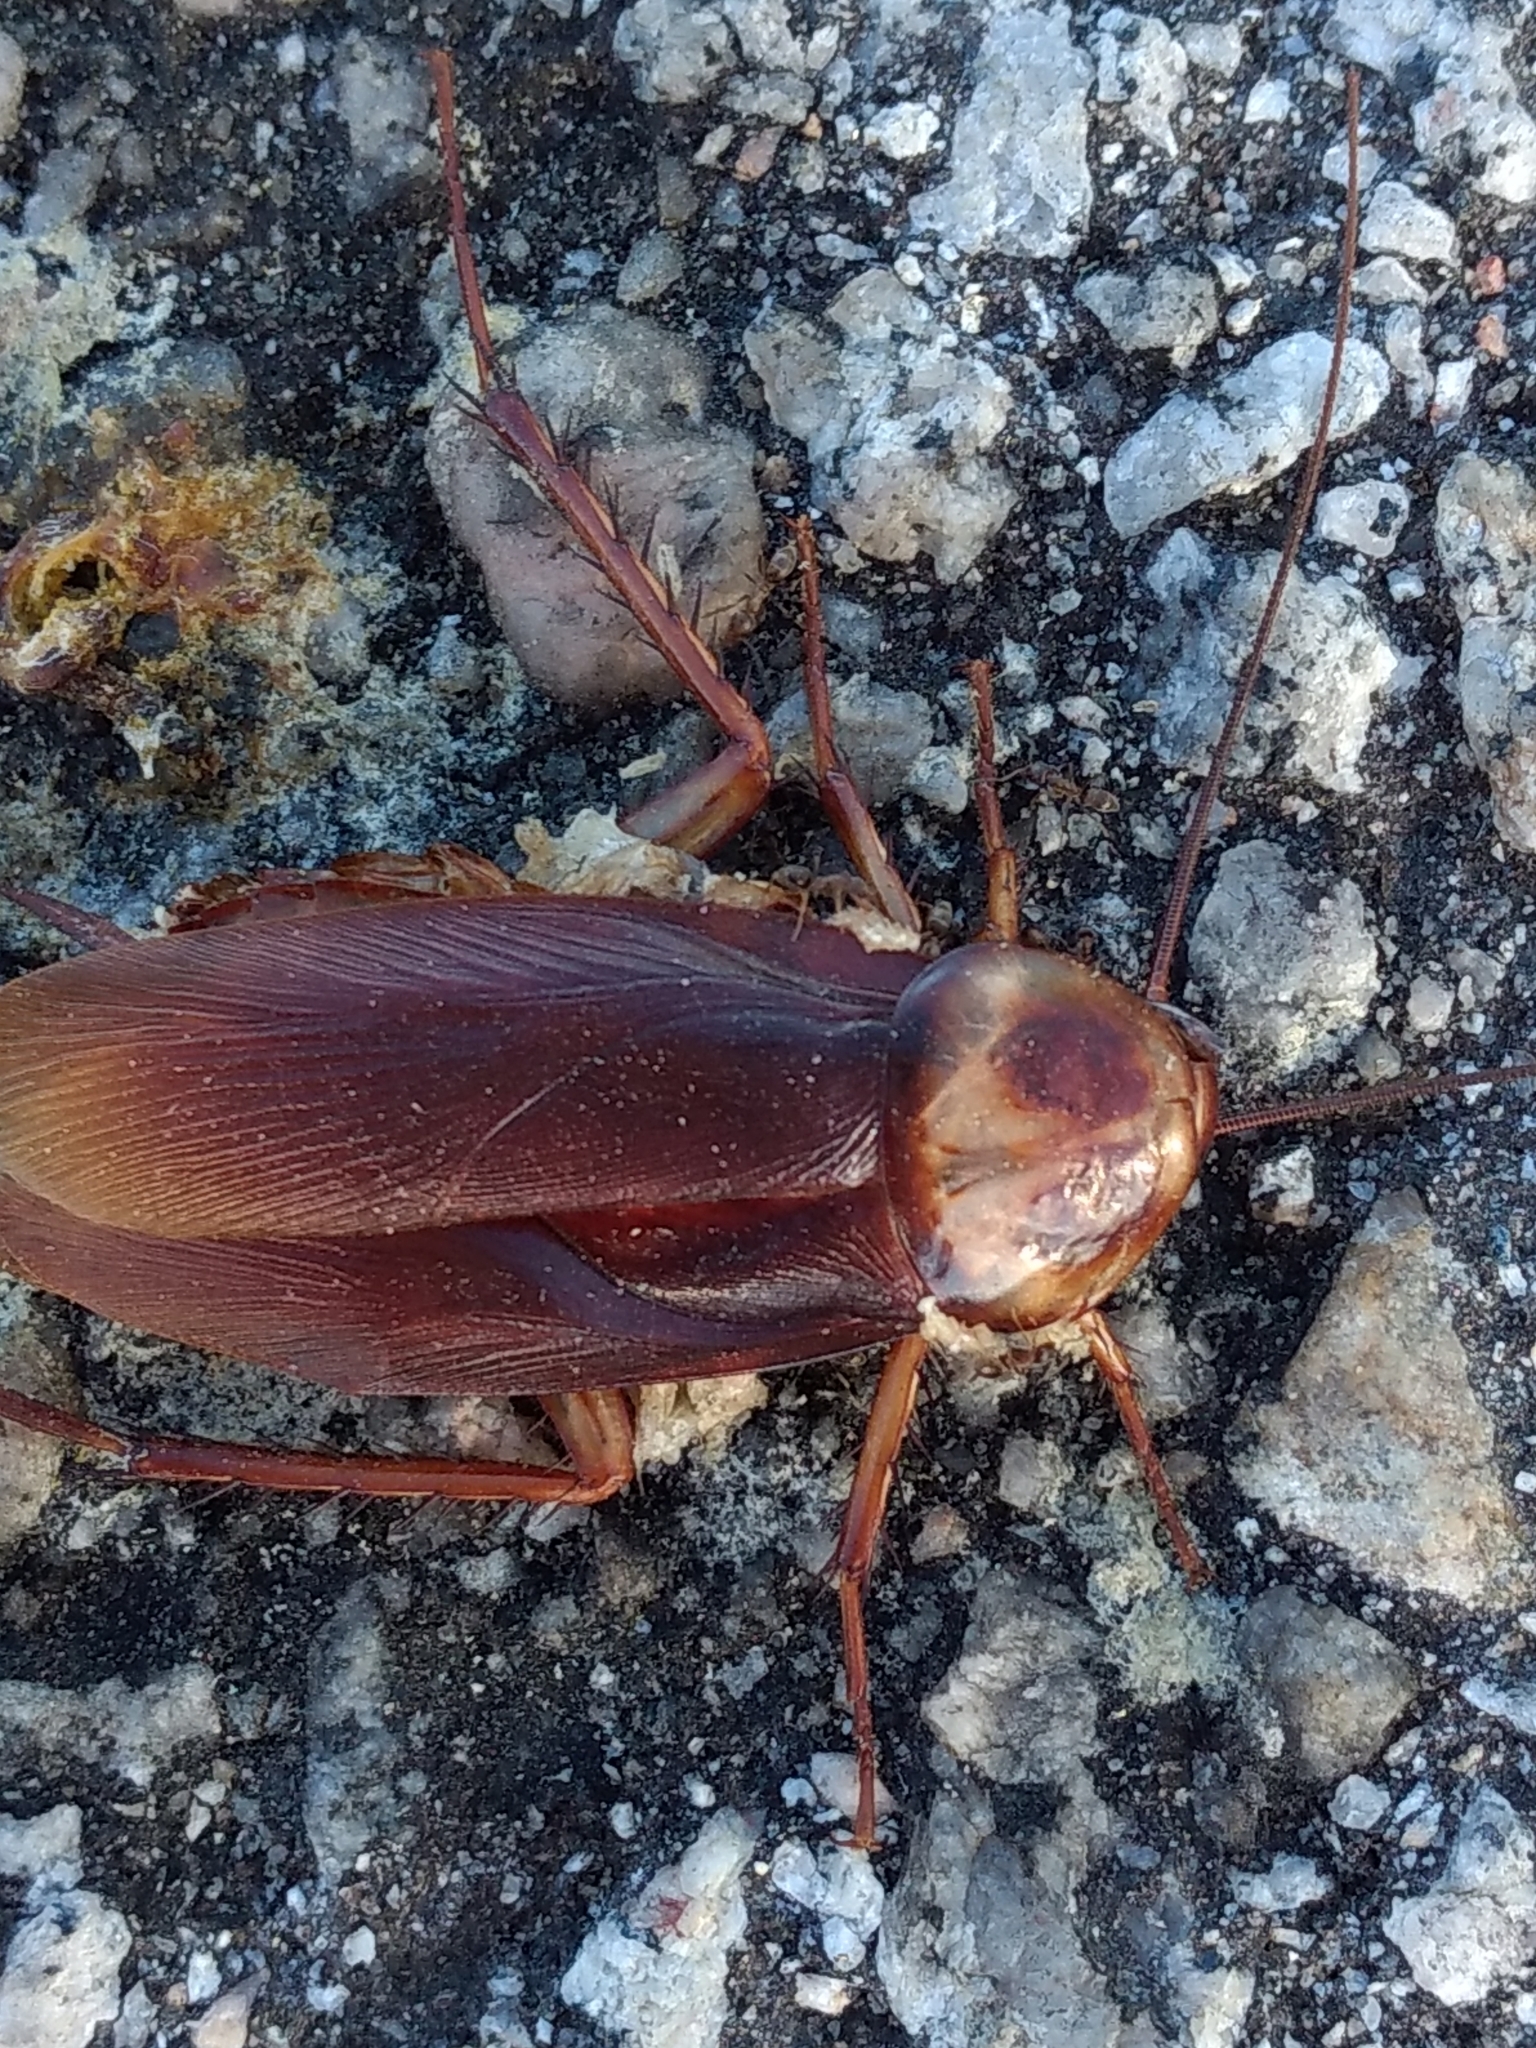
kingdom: Animalia
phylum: Arthropoda
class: Insecta
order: Blattodea
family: Blattidae
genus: Periplaneta
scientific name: Periplaneta americana
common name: American cockroach
